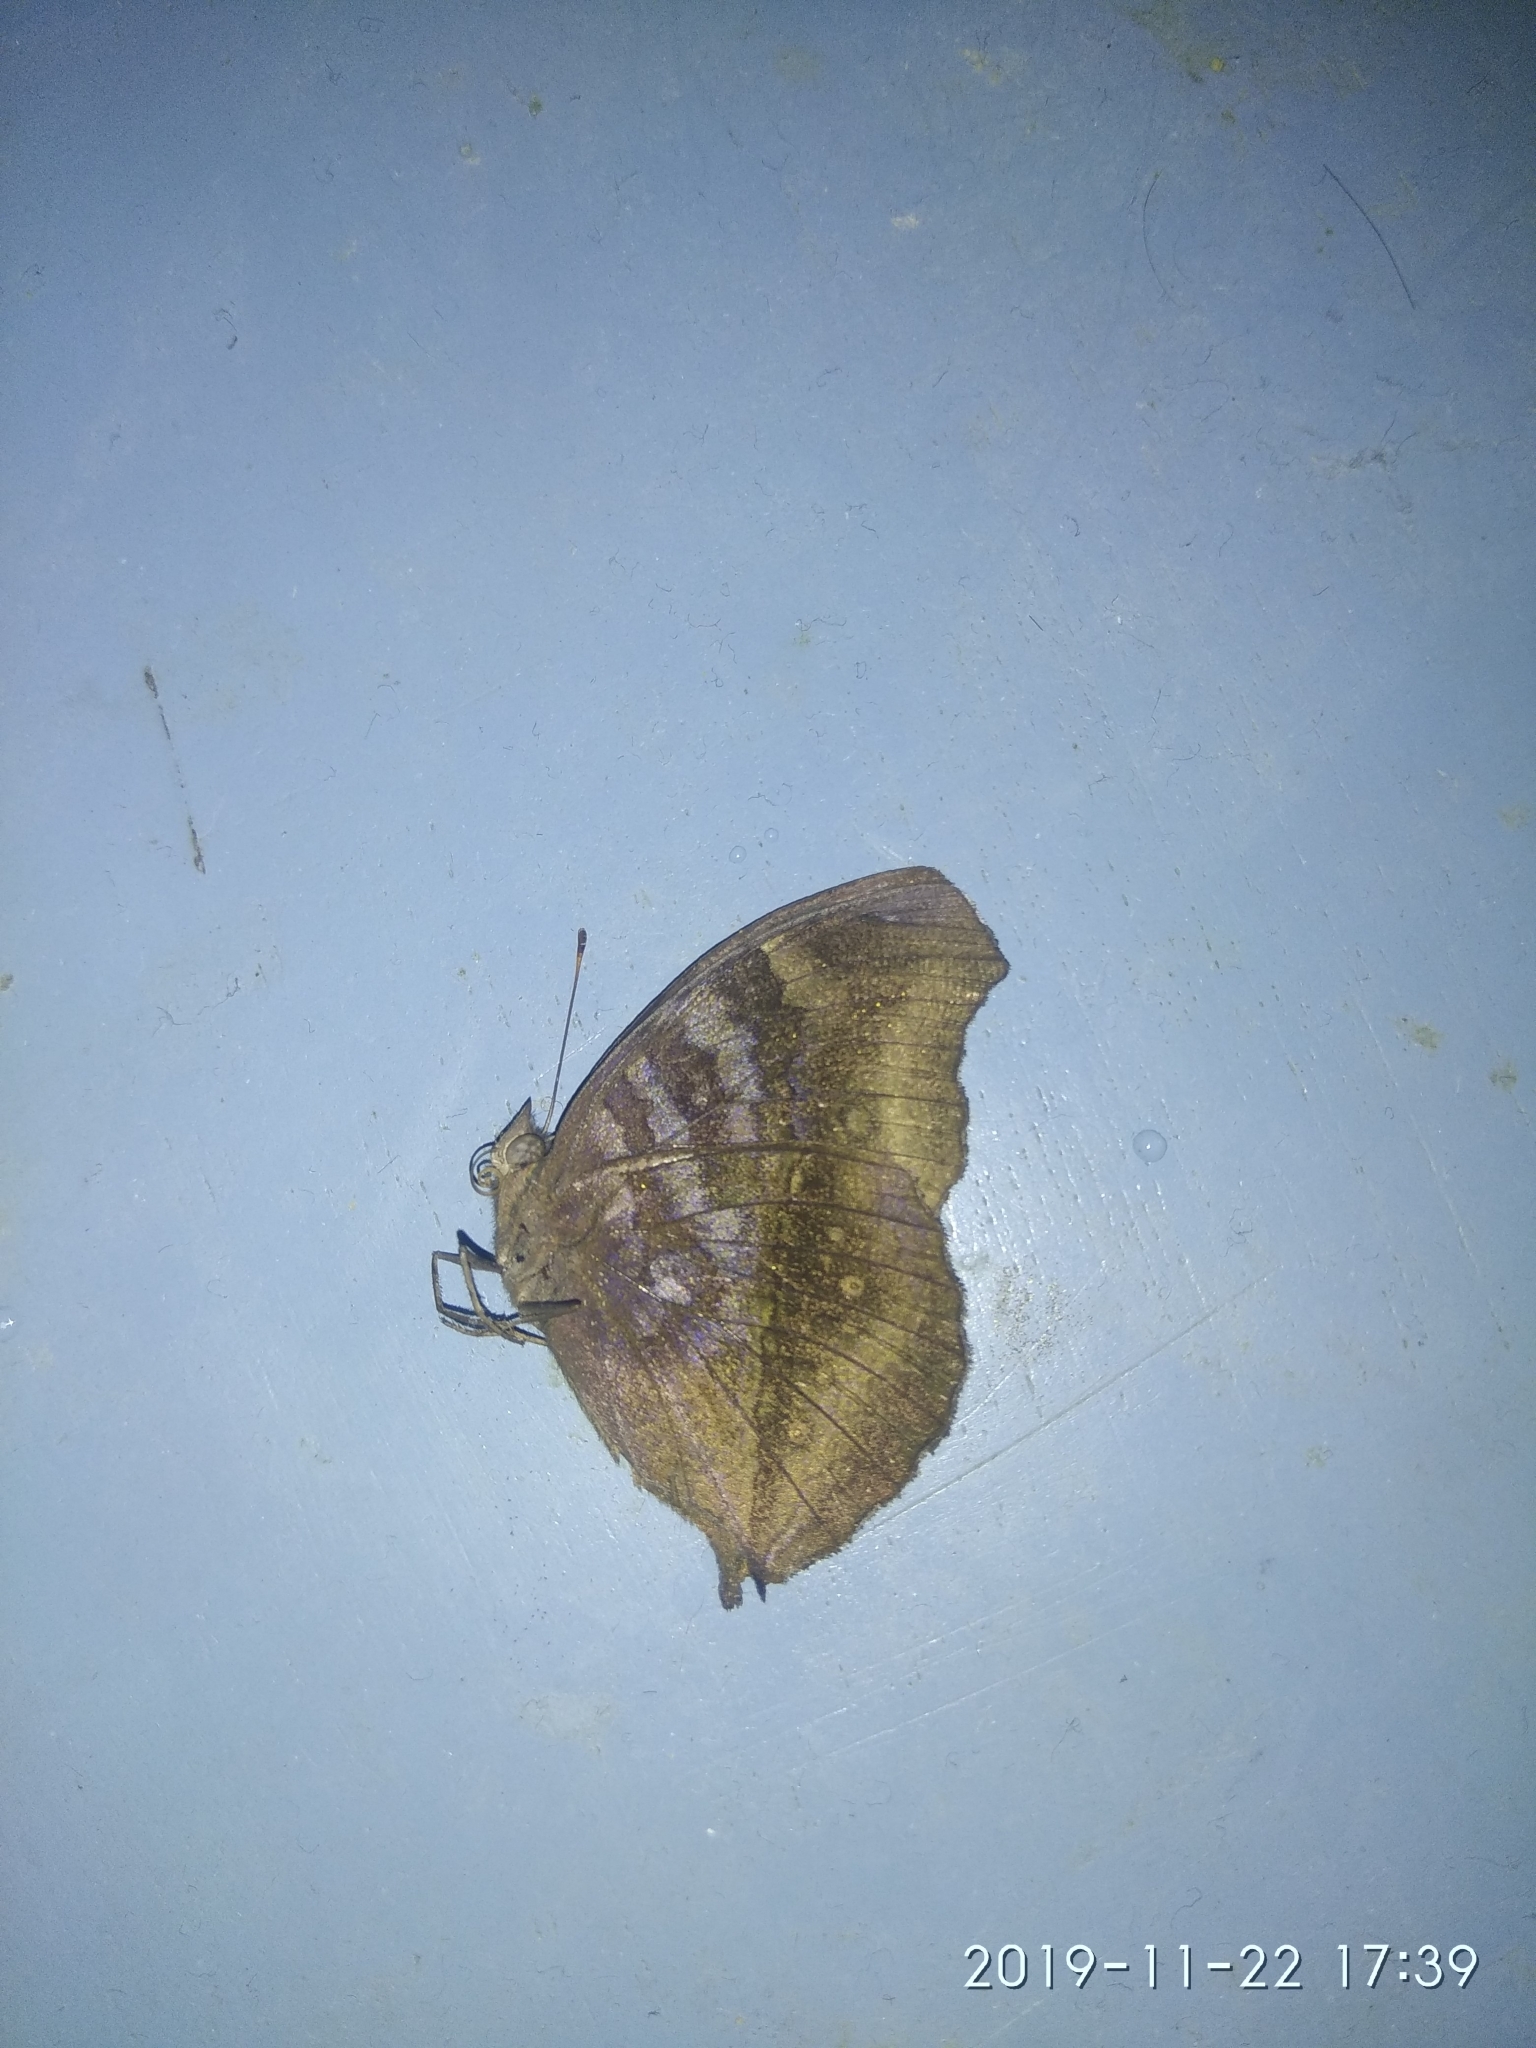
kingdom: Animalia
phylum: Arthropoda
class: Insecta
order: Lepidoptera
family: Nymphalidae
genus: Junonia
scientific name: Junonia iphita
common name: Chocolate pansy
